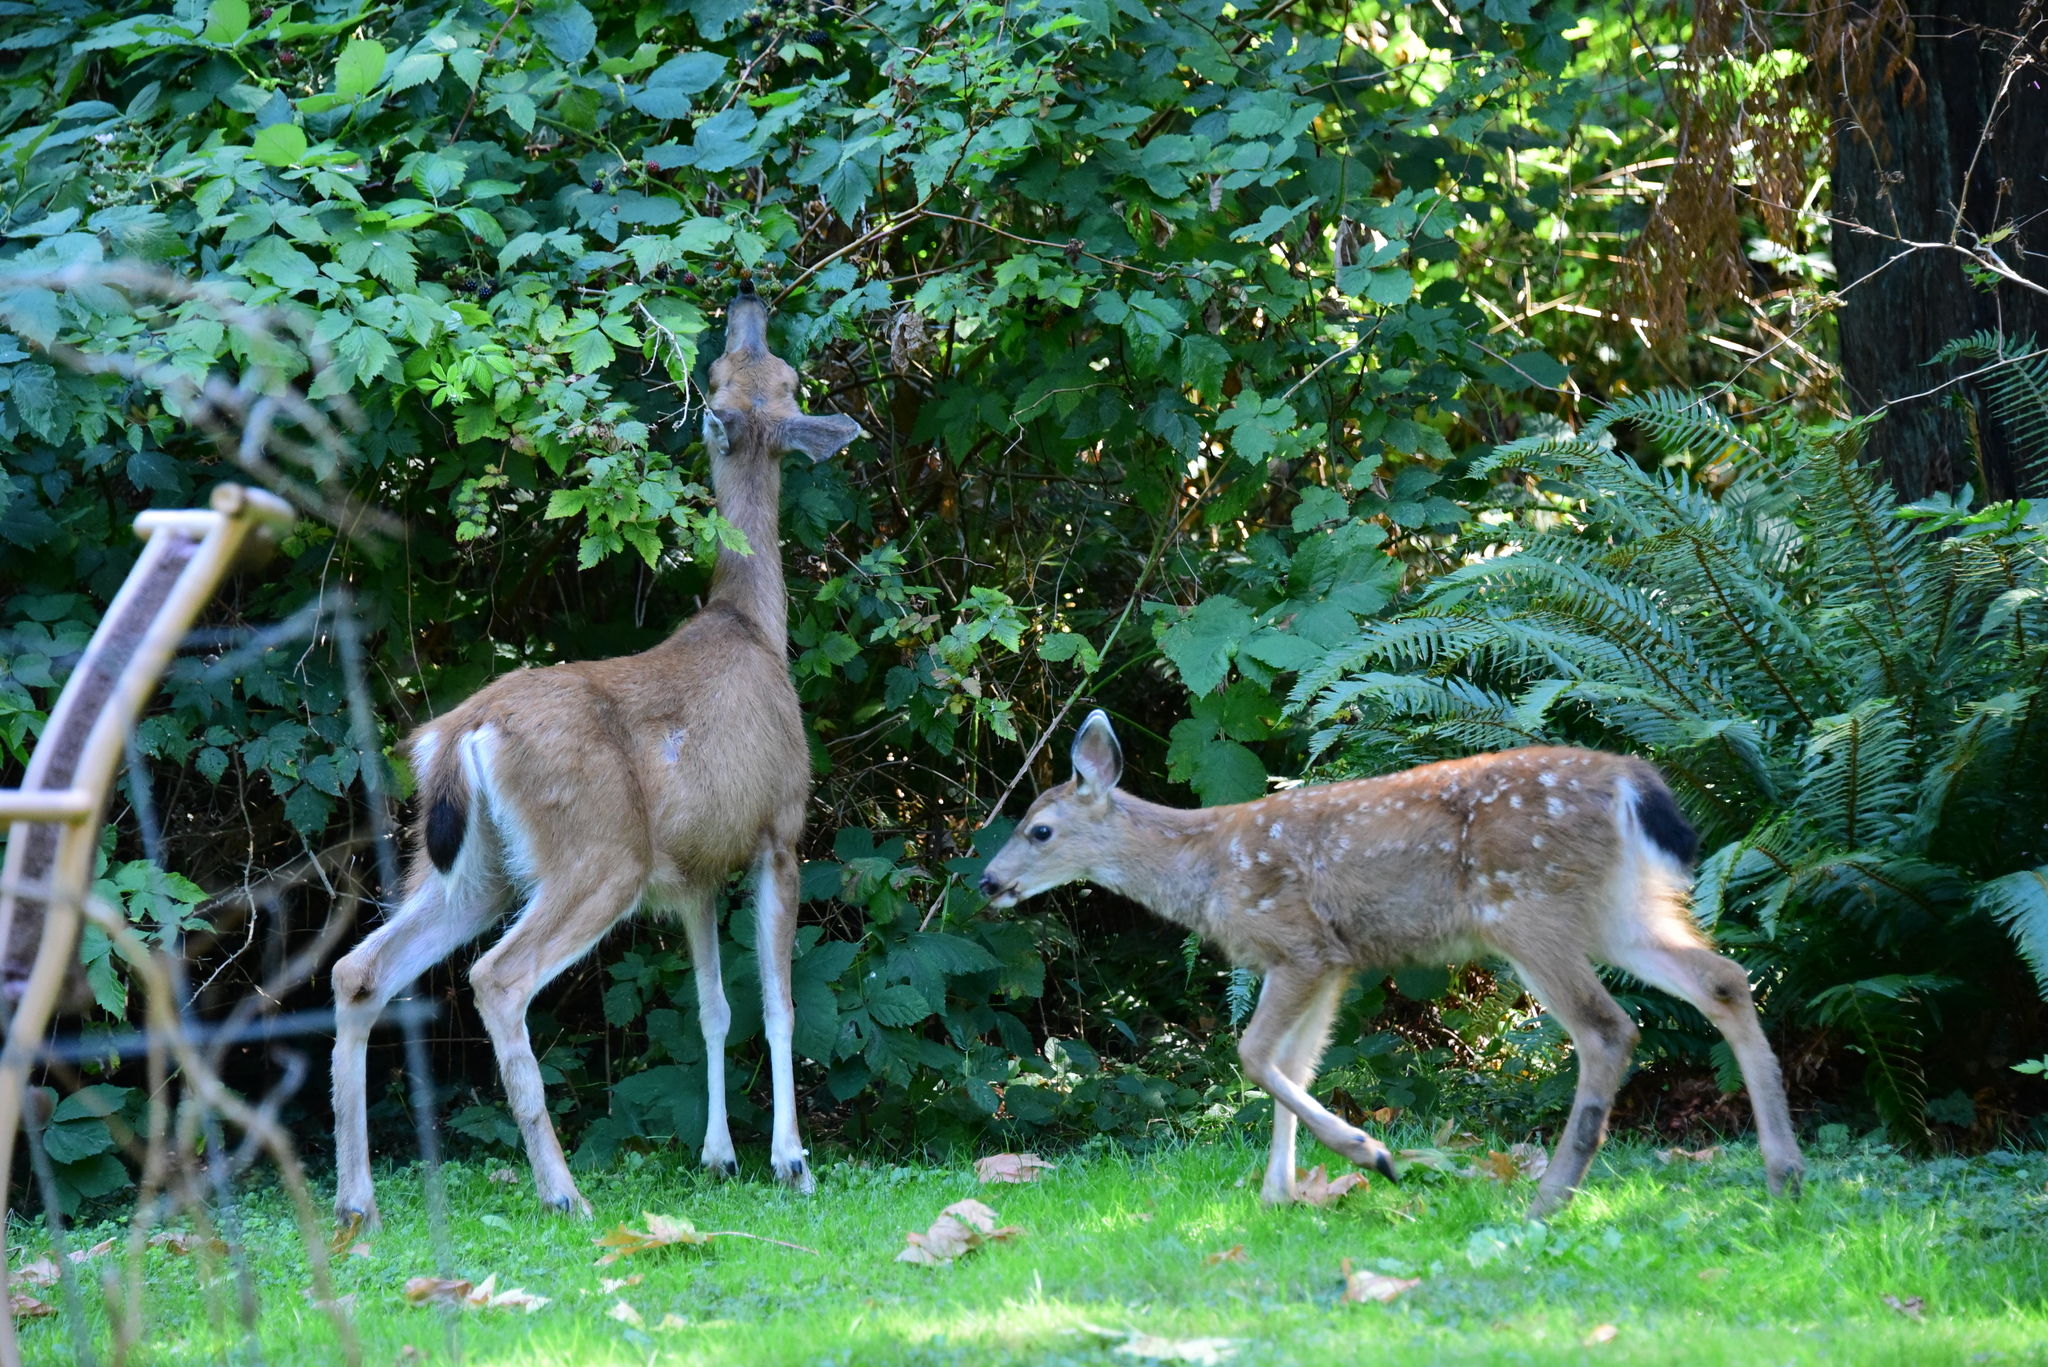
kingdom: Animalia
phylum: Chordata
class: Mammalia
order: Artiodactyla
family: Cervidae
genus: Odocoileus
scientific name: Odocoileus hemionus
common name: Mule deer
